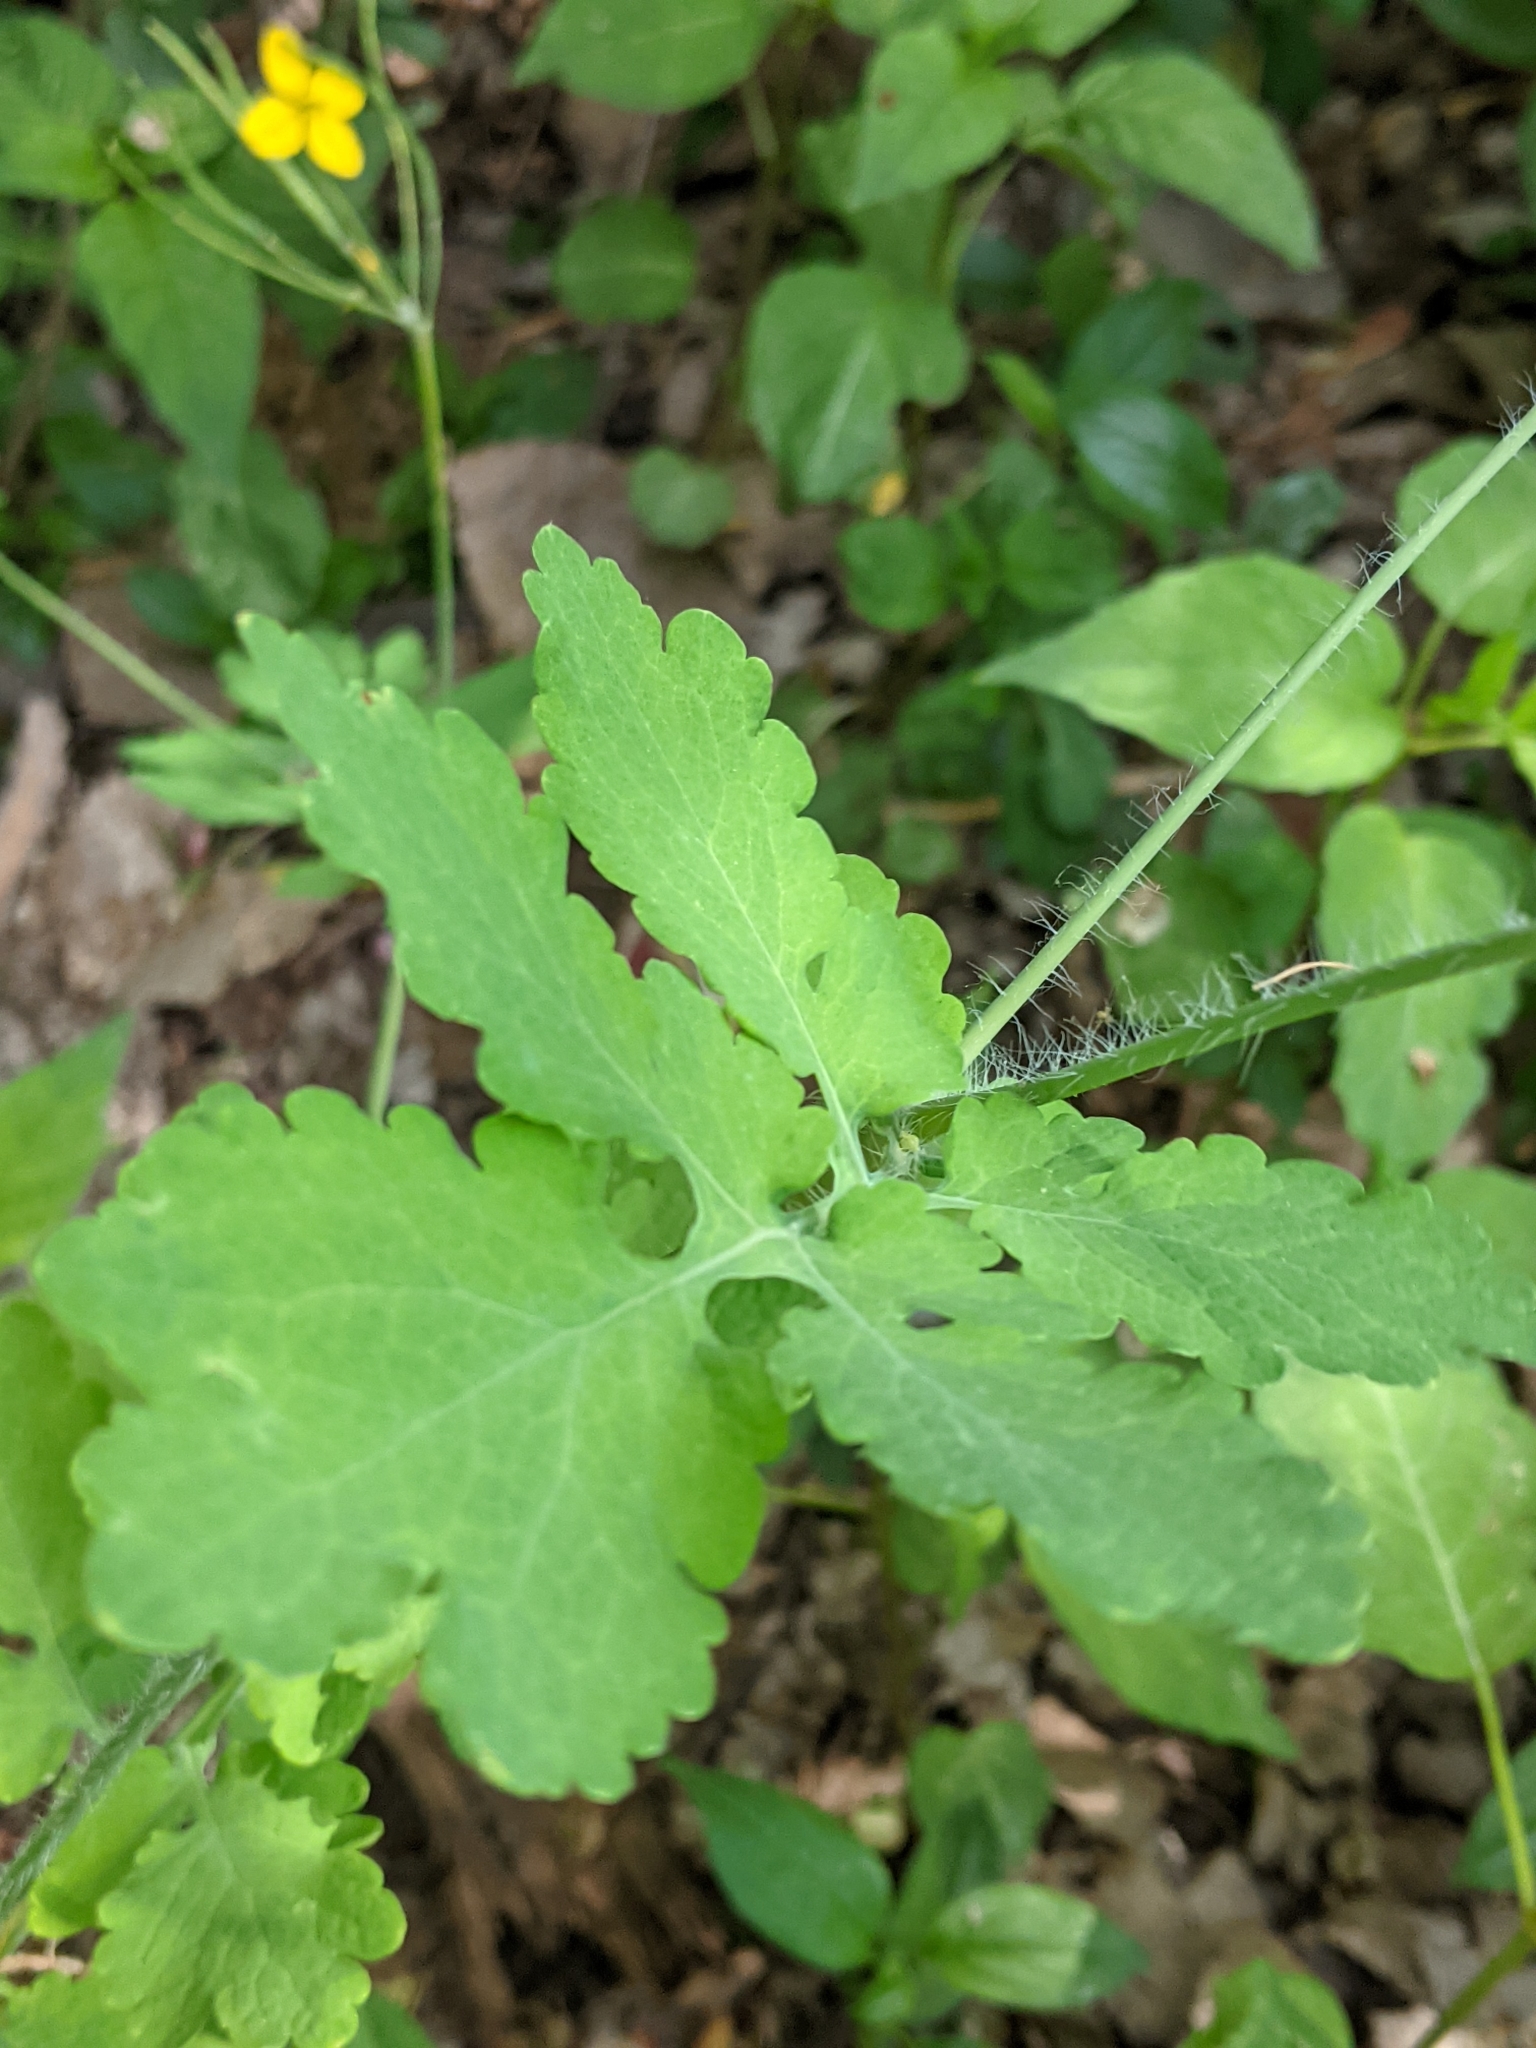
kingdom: Plantae
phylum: Tracheophyta
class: Magnoliopsida
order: Ranunculales
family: Papaveraceae
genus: Chelidonium
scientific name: Chelidonium majus
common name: Greater celandine
